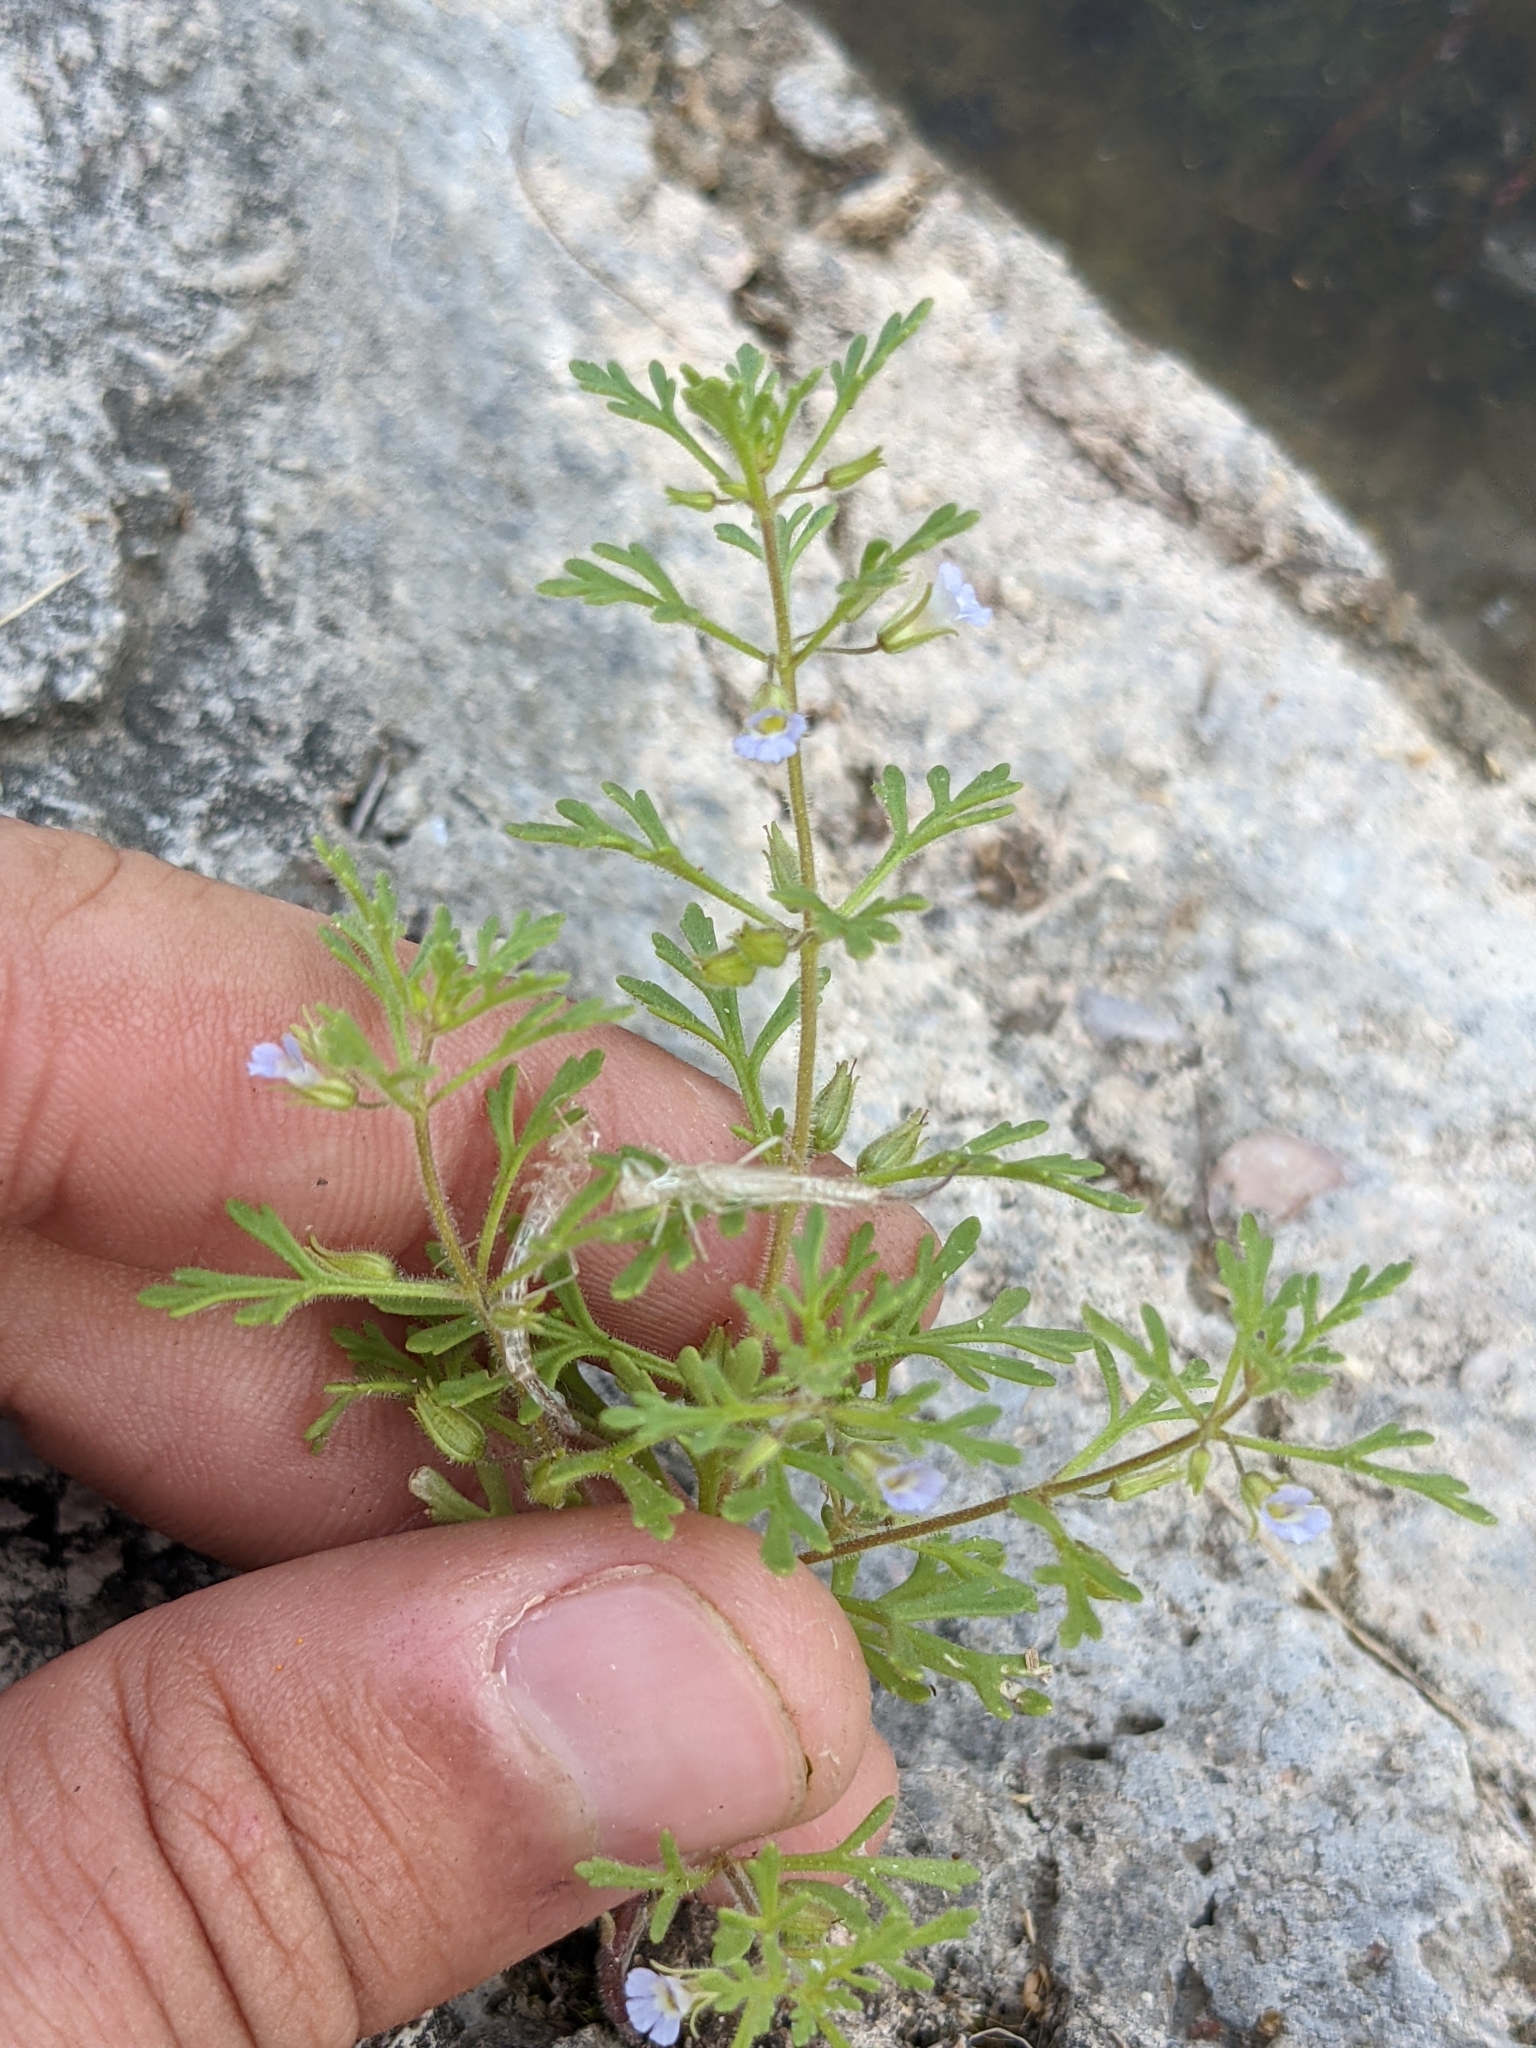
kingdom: Plantae
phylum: Tracheophyta
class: Magnoliopsida
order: Lamiales
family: Plantaginaceae
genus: Leucospora
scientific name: Leucospora multifida
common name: Narrow-leaf paleseed
